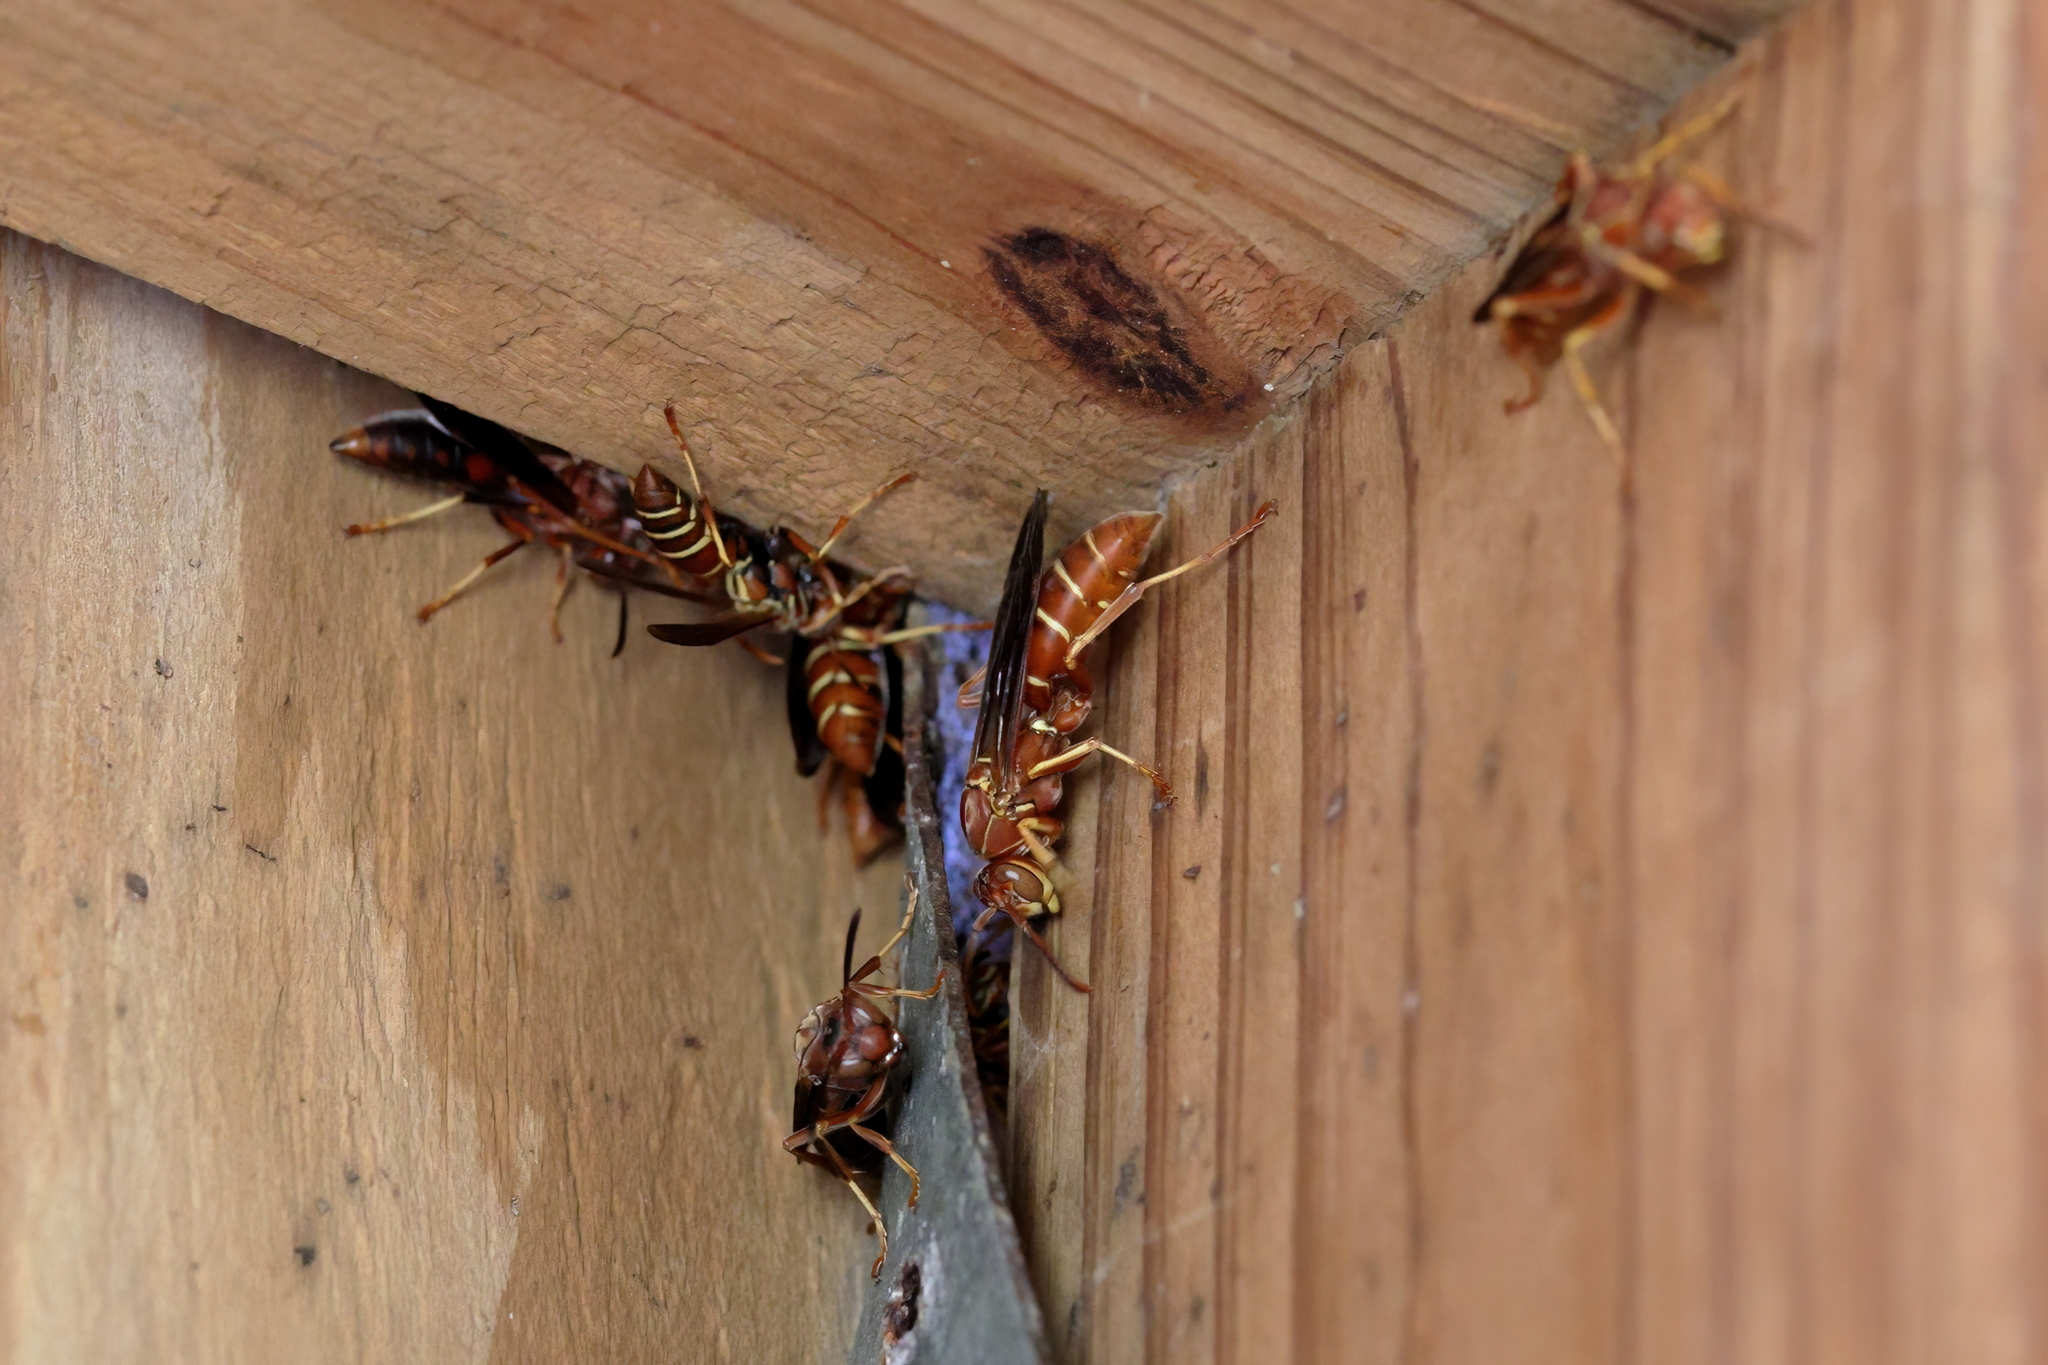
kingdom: Animalia
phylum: Arthropoda
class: Insecta
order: Hymenoptera
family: Eumenidae
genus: Polistes
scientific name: Polistes bellicosus
